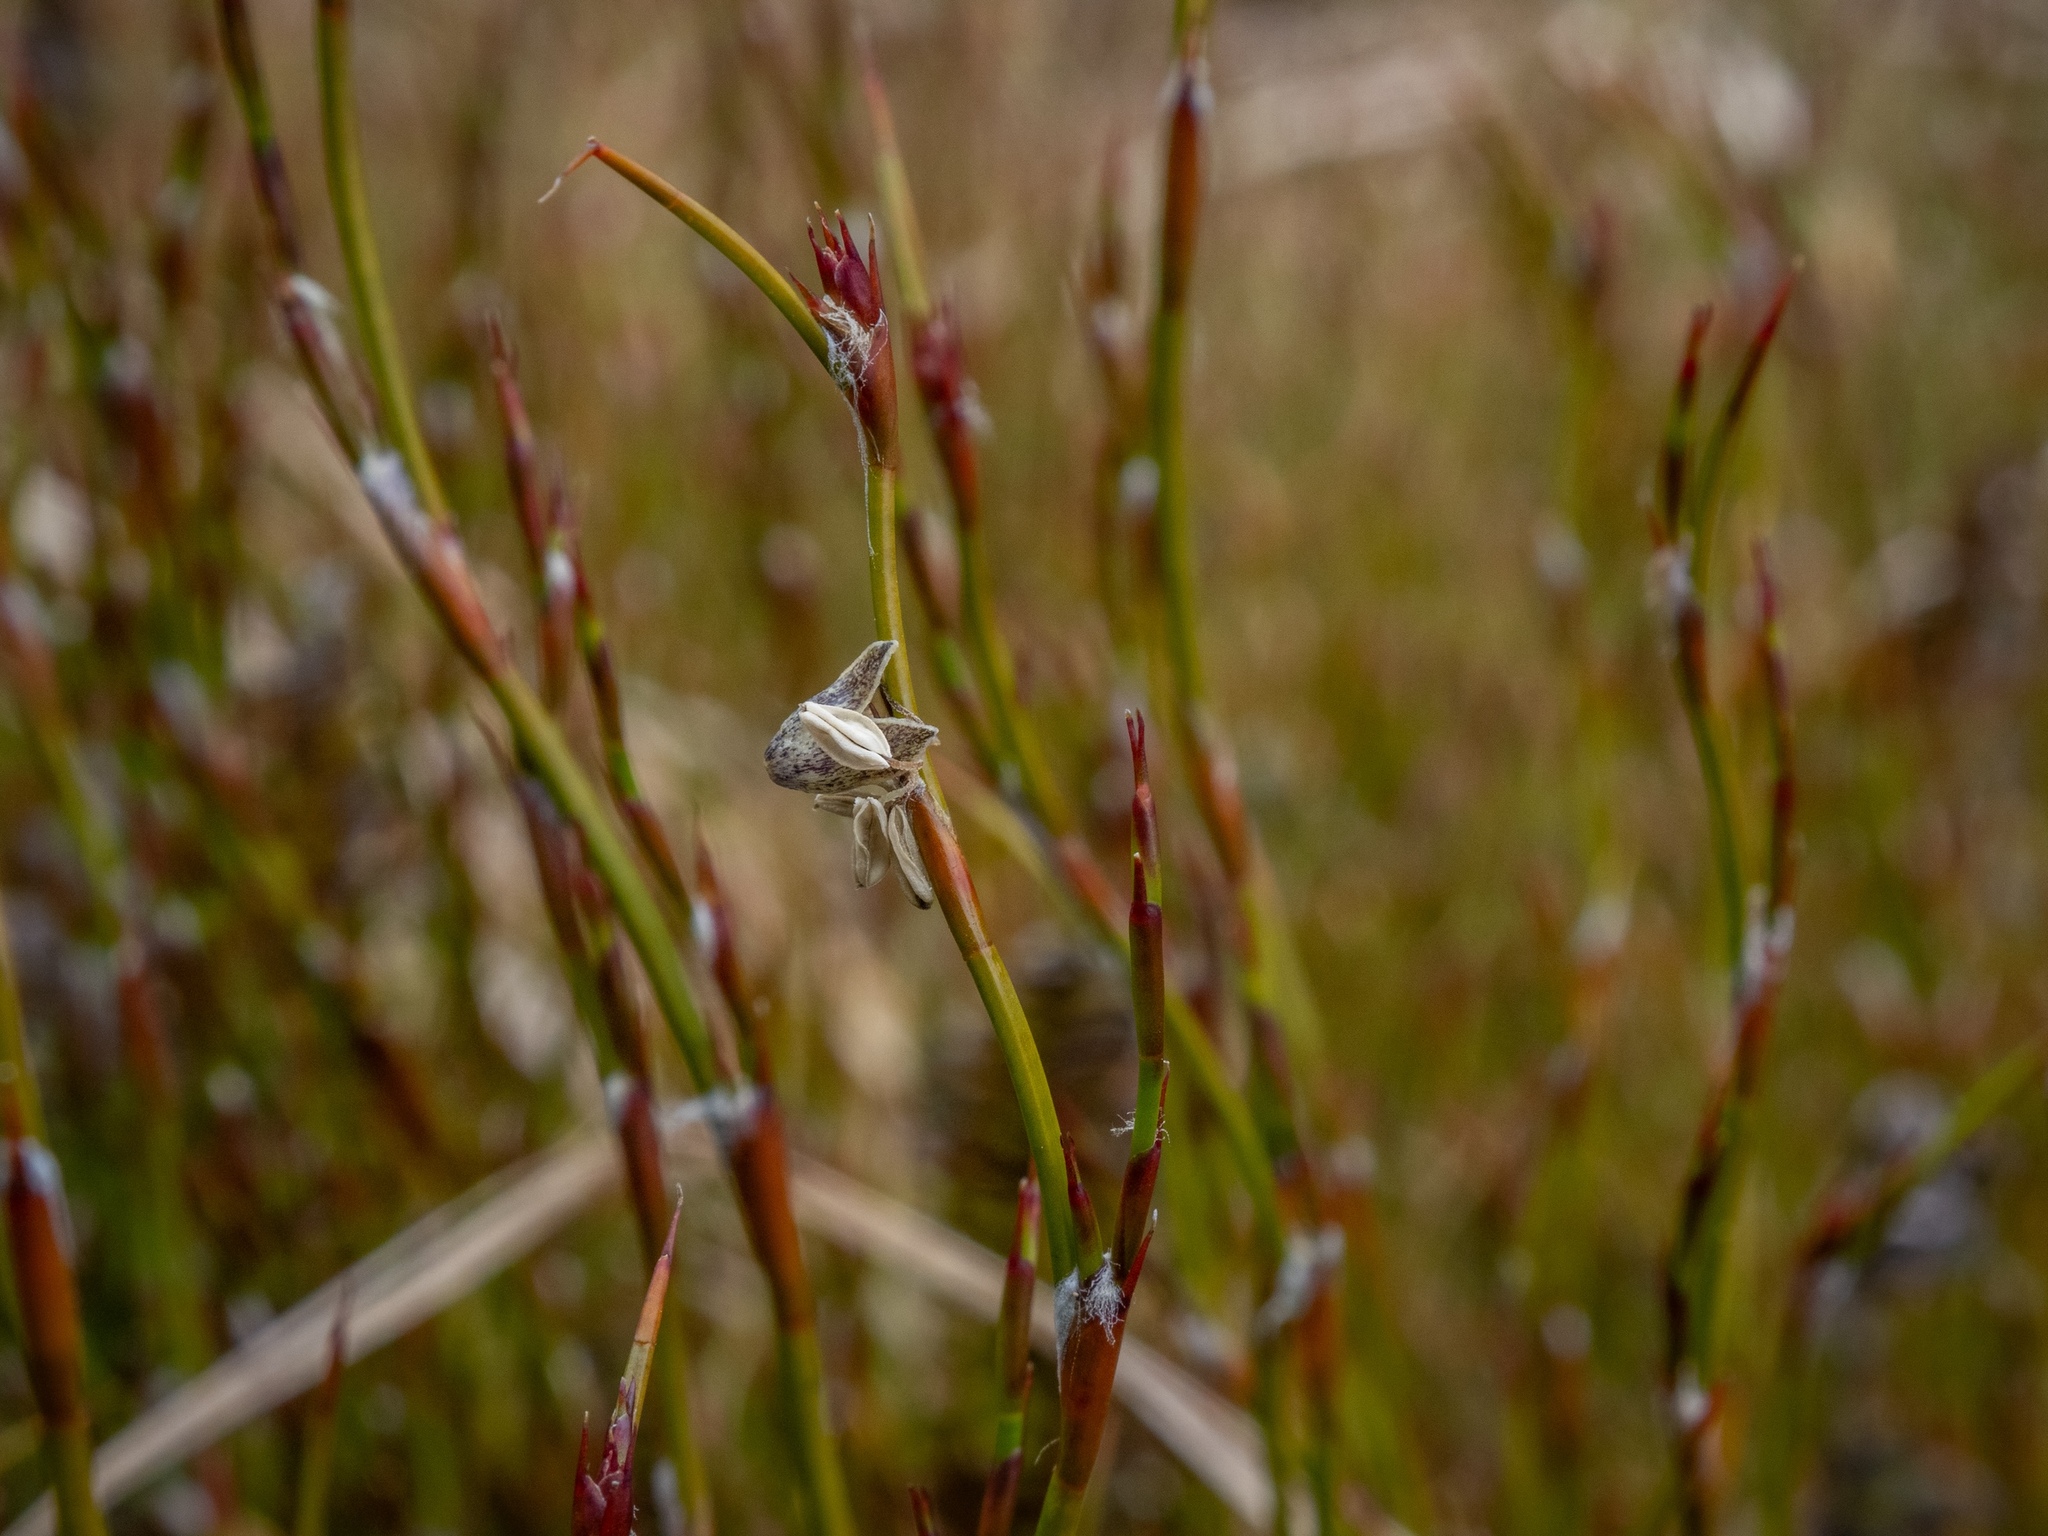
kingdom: Plantae
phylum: Tracheophyta
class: Liliopsida
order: Poales
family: Restionaceae
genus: Empodisma
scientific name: Empodisma minus
